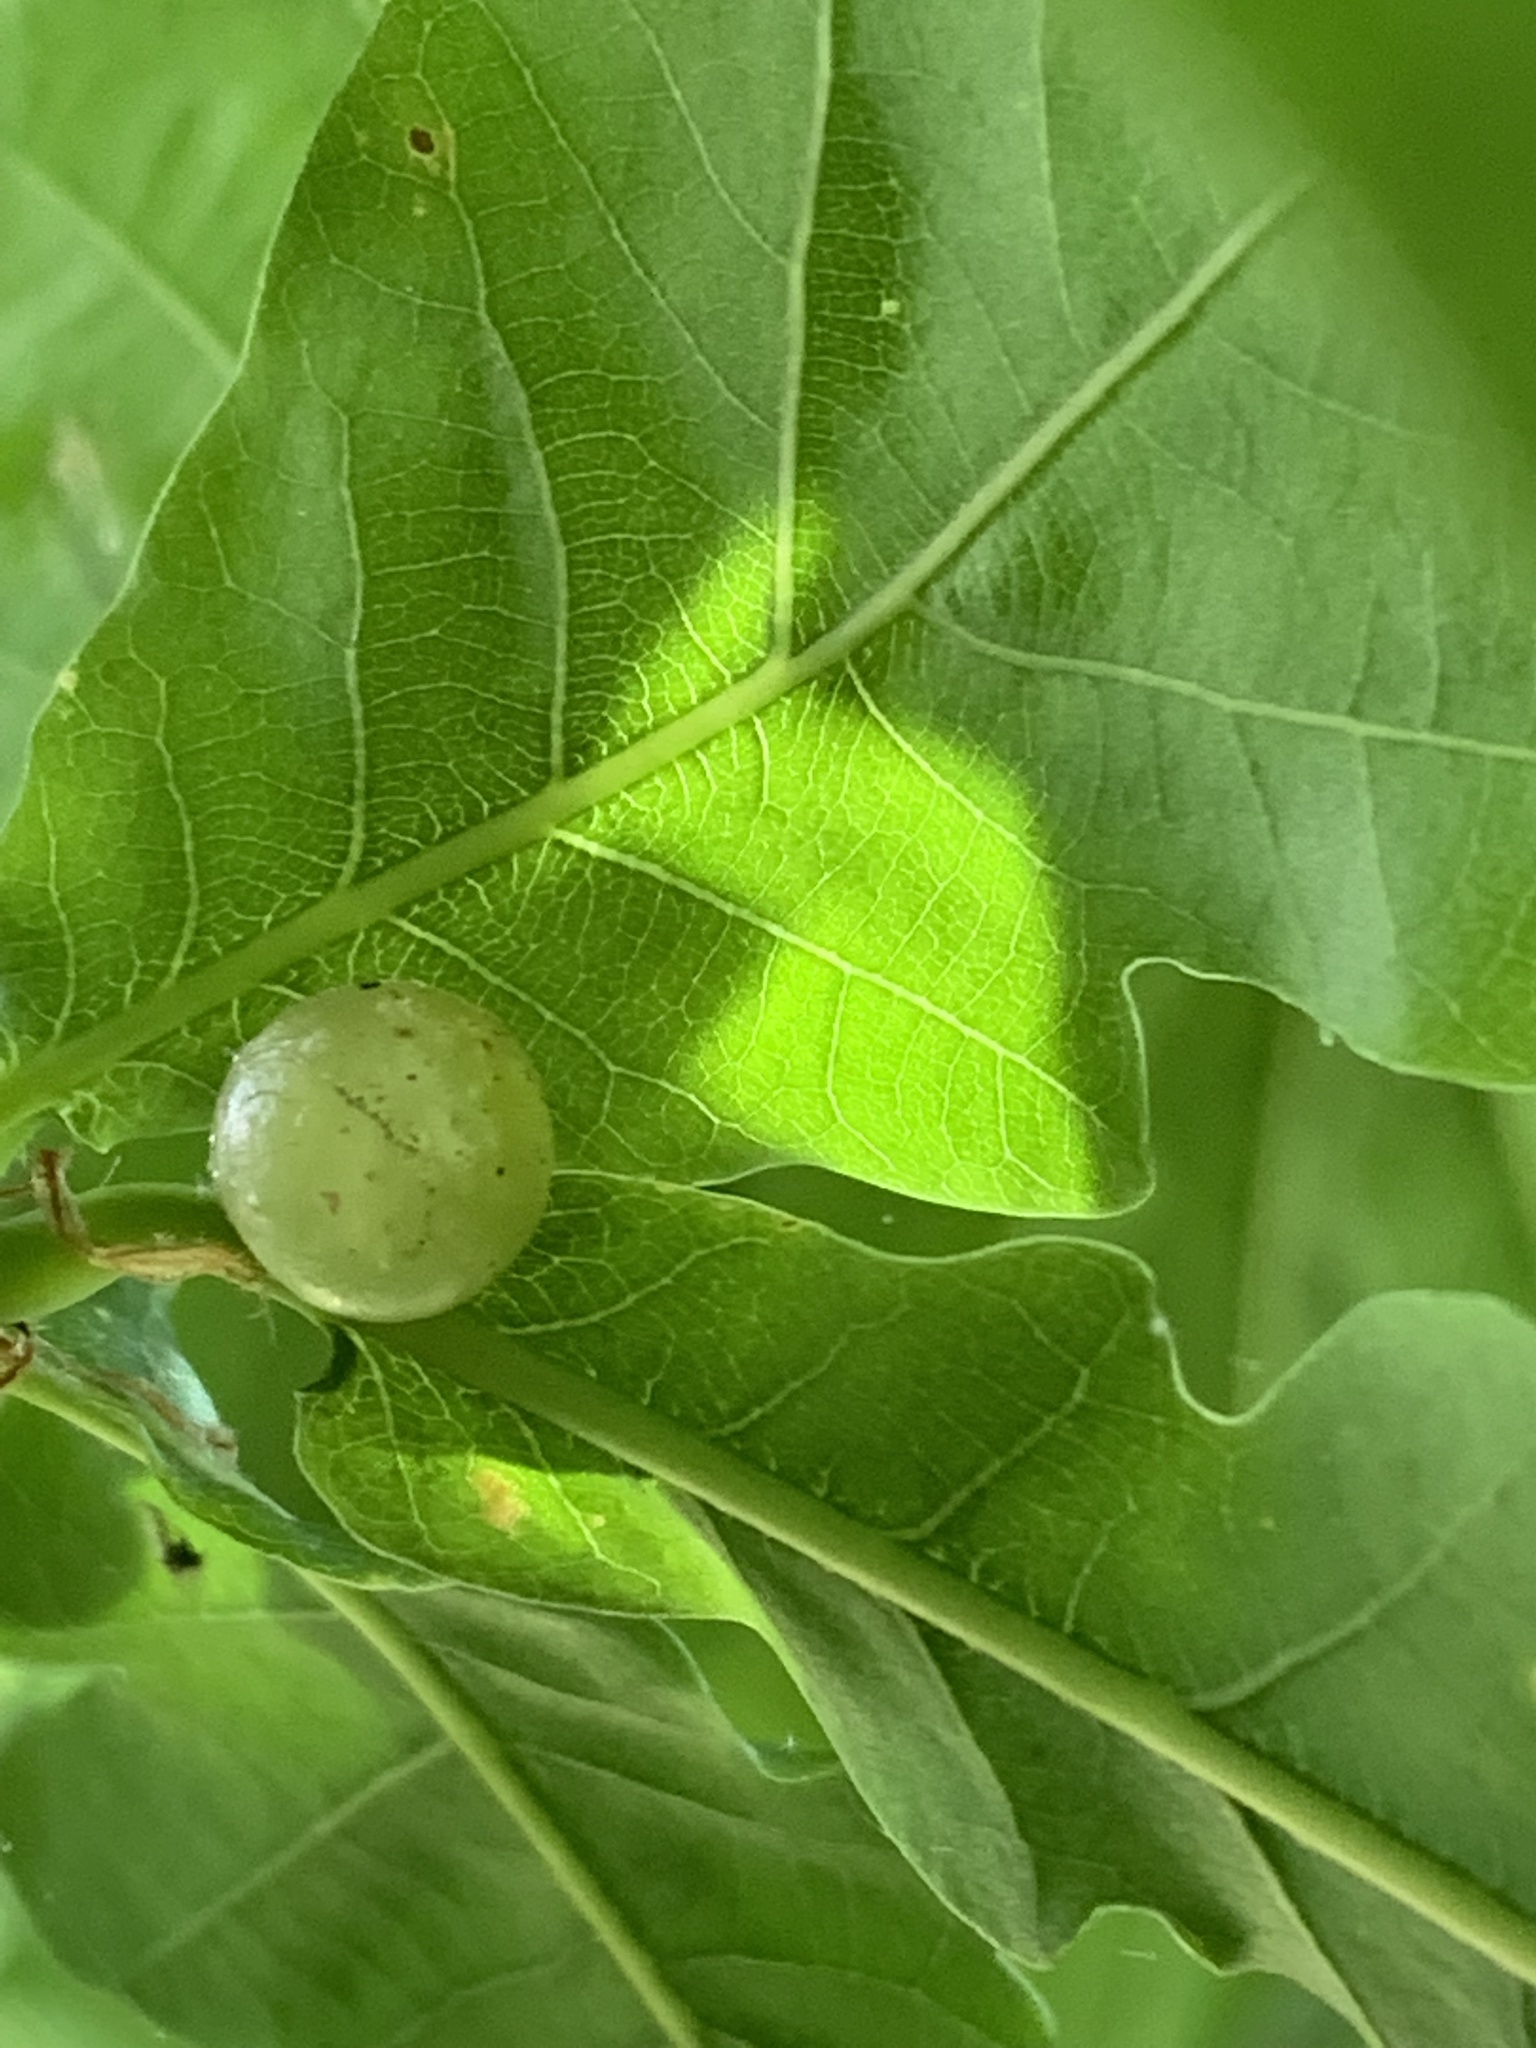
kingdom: Animalia
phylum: Arthropoda
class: Insecta
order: Hymenoptera
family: Cynipidae
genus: Neuroterus
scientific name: Neuroterus quercusbaccarum
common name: Common spangle gall
